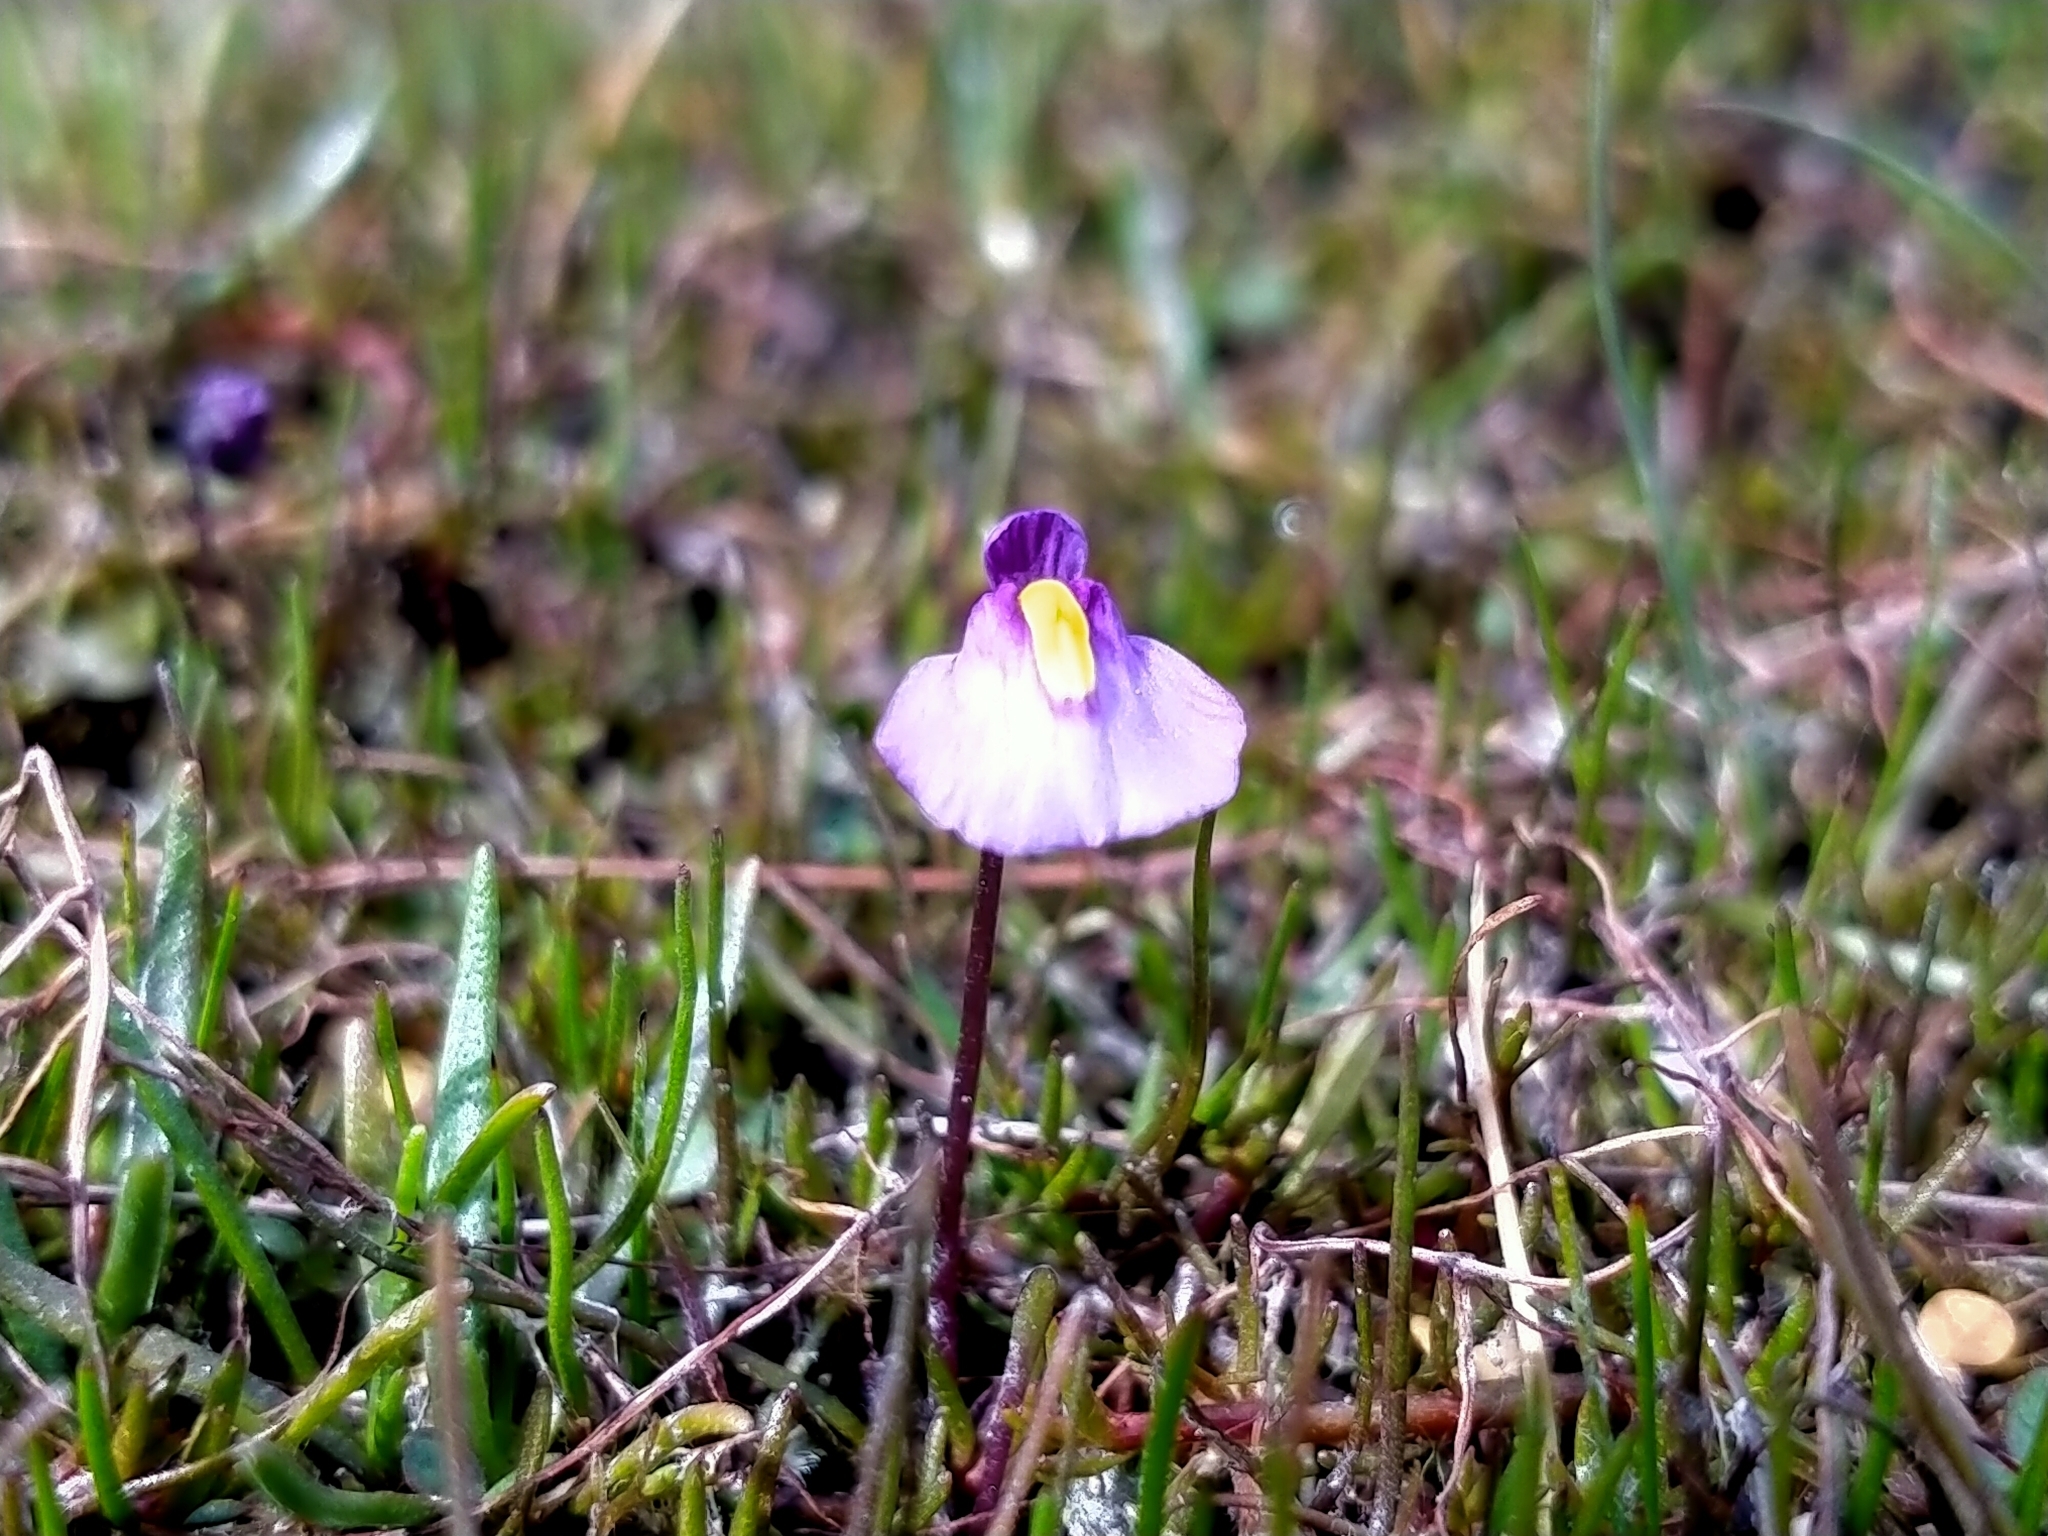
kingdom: Plantae
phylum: Tracheophyta
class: Magnoliopsida
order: Lamiales
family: Lentibulariaceae
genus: Utricularia
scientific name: Utricularia dichotoma
